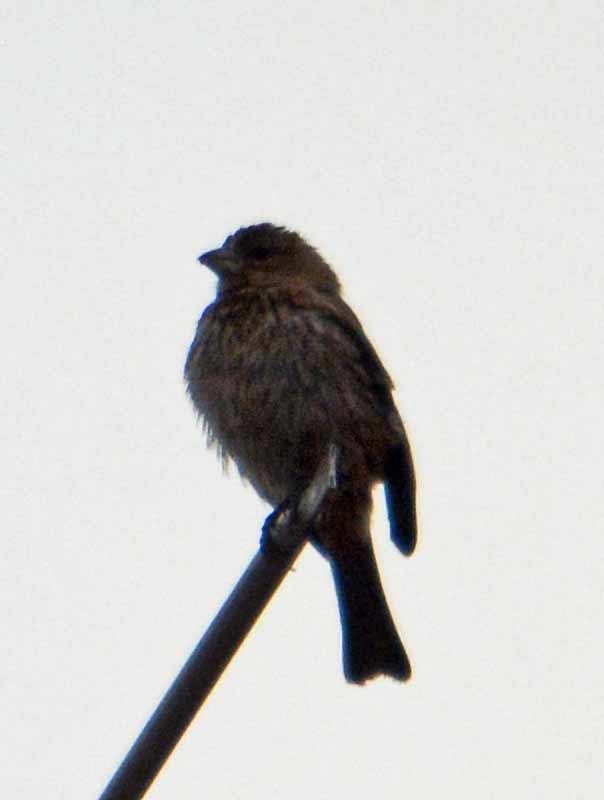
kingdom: Animalia
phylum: Chordata
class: Aves
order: Passeriformes
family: Fringillidae
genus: Haemorhous
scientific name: Haemorhous mexicanus
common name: House finch
